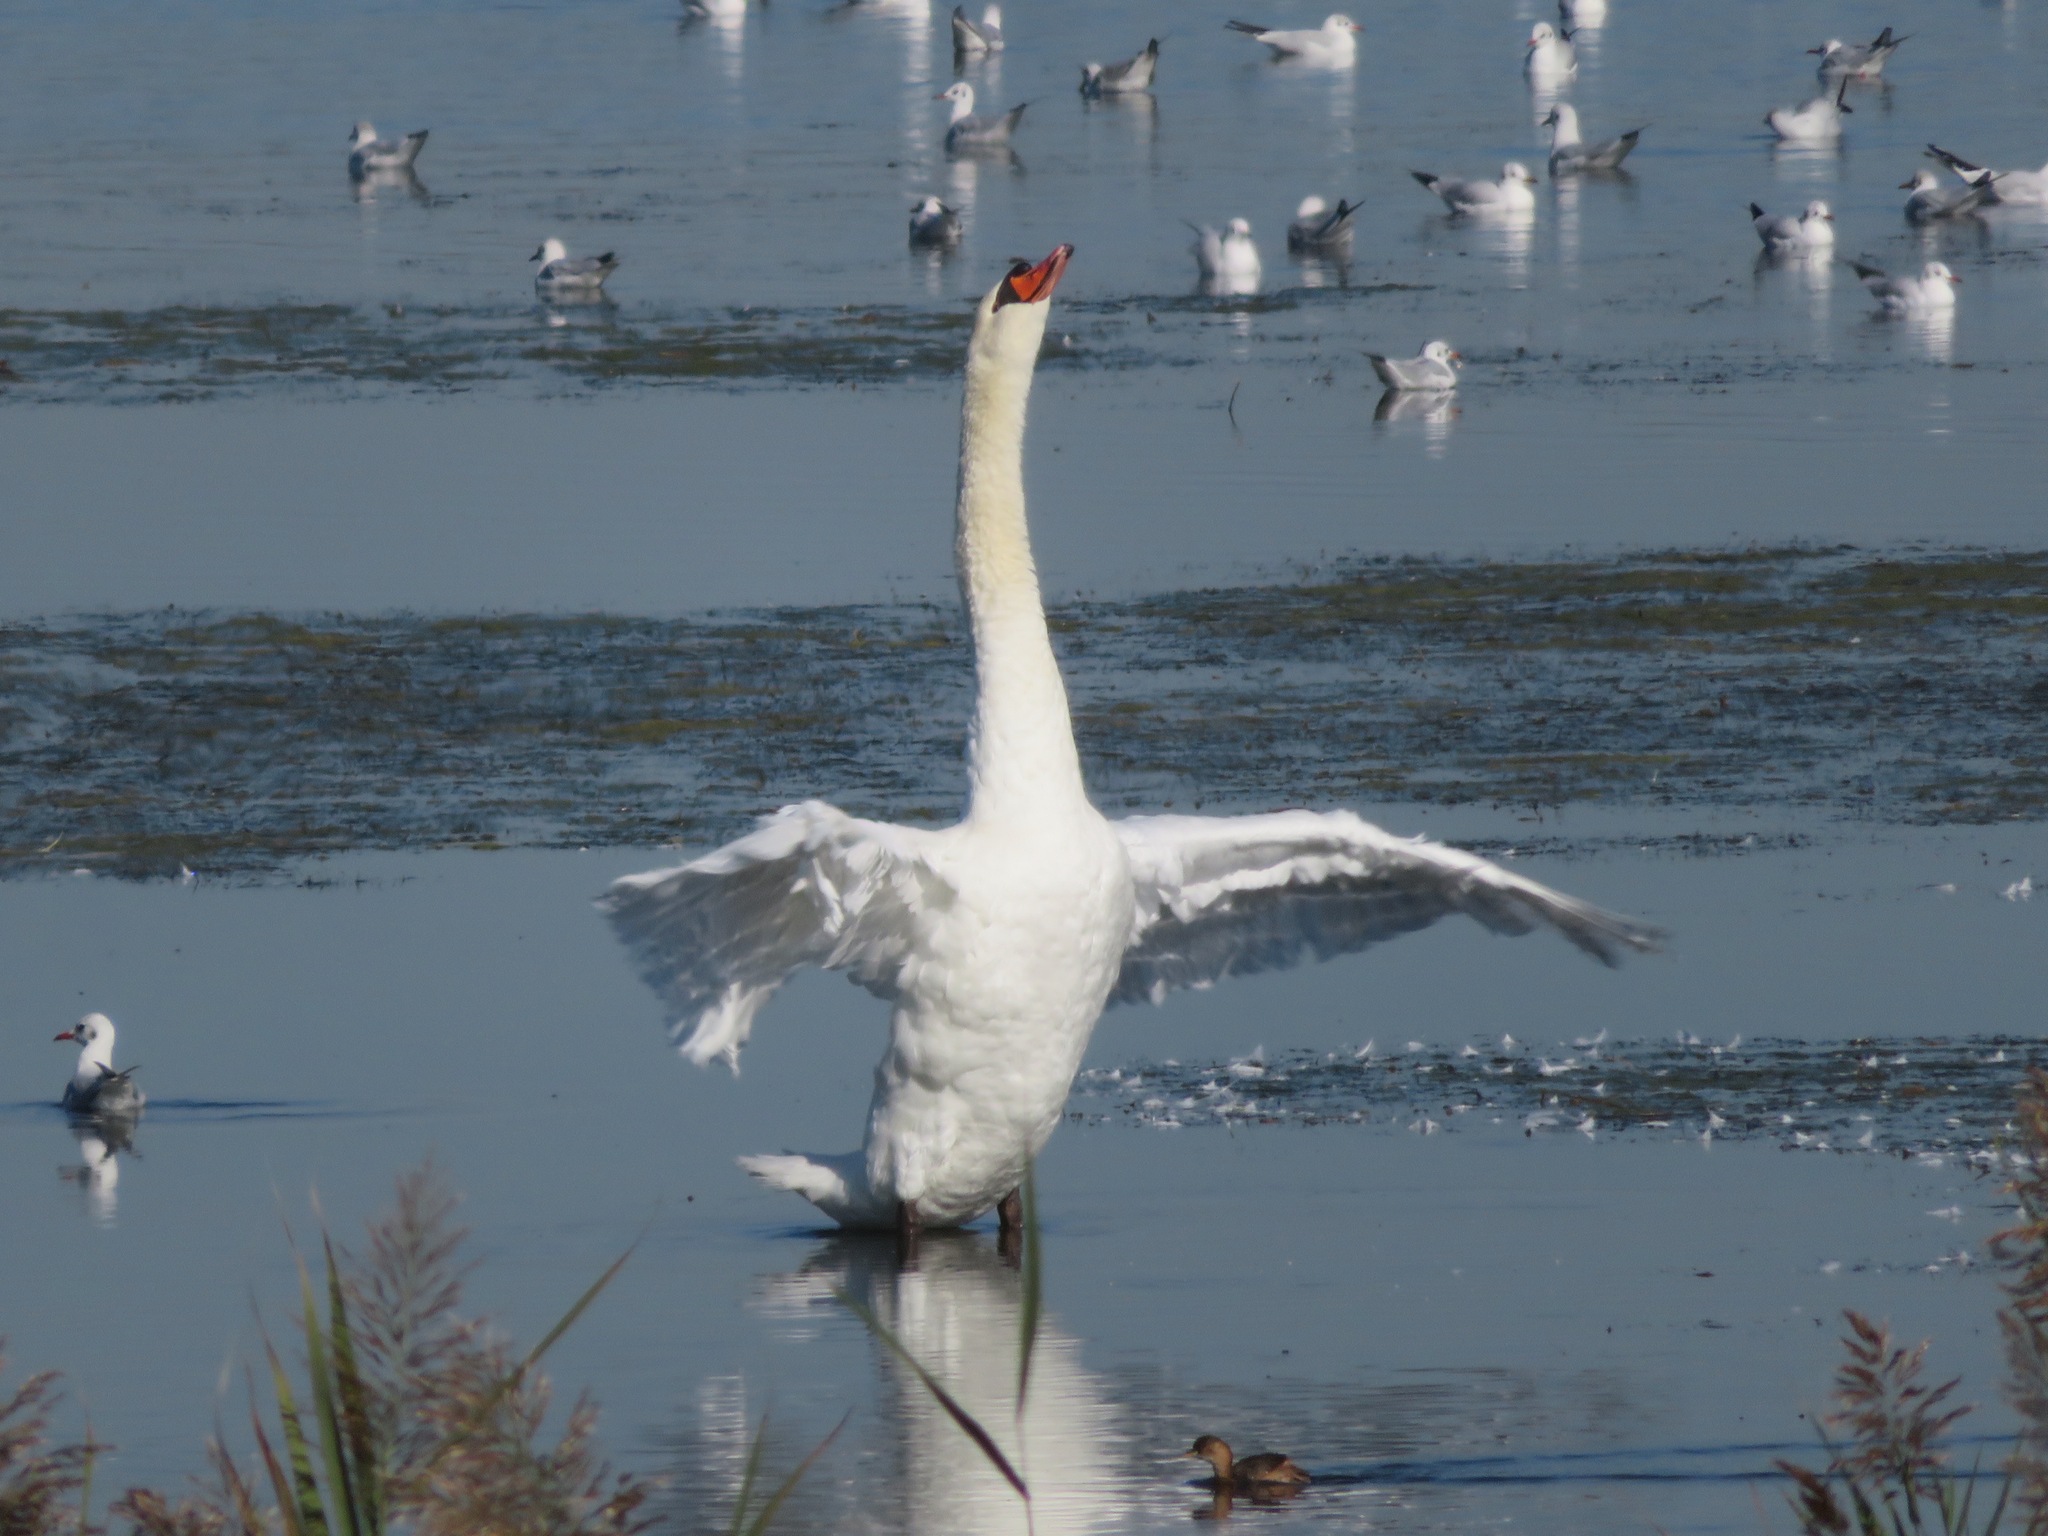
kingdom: Animalia
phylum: Chordata
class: Aves
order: Anseriformes
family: Anatidae
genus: Cygnus
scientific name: Cygnus olor
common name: Mute swan
